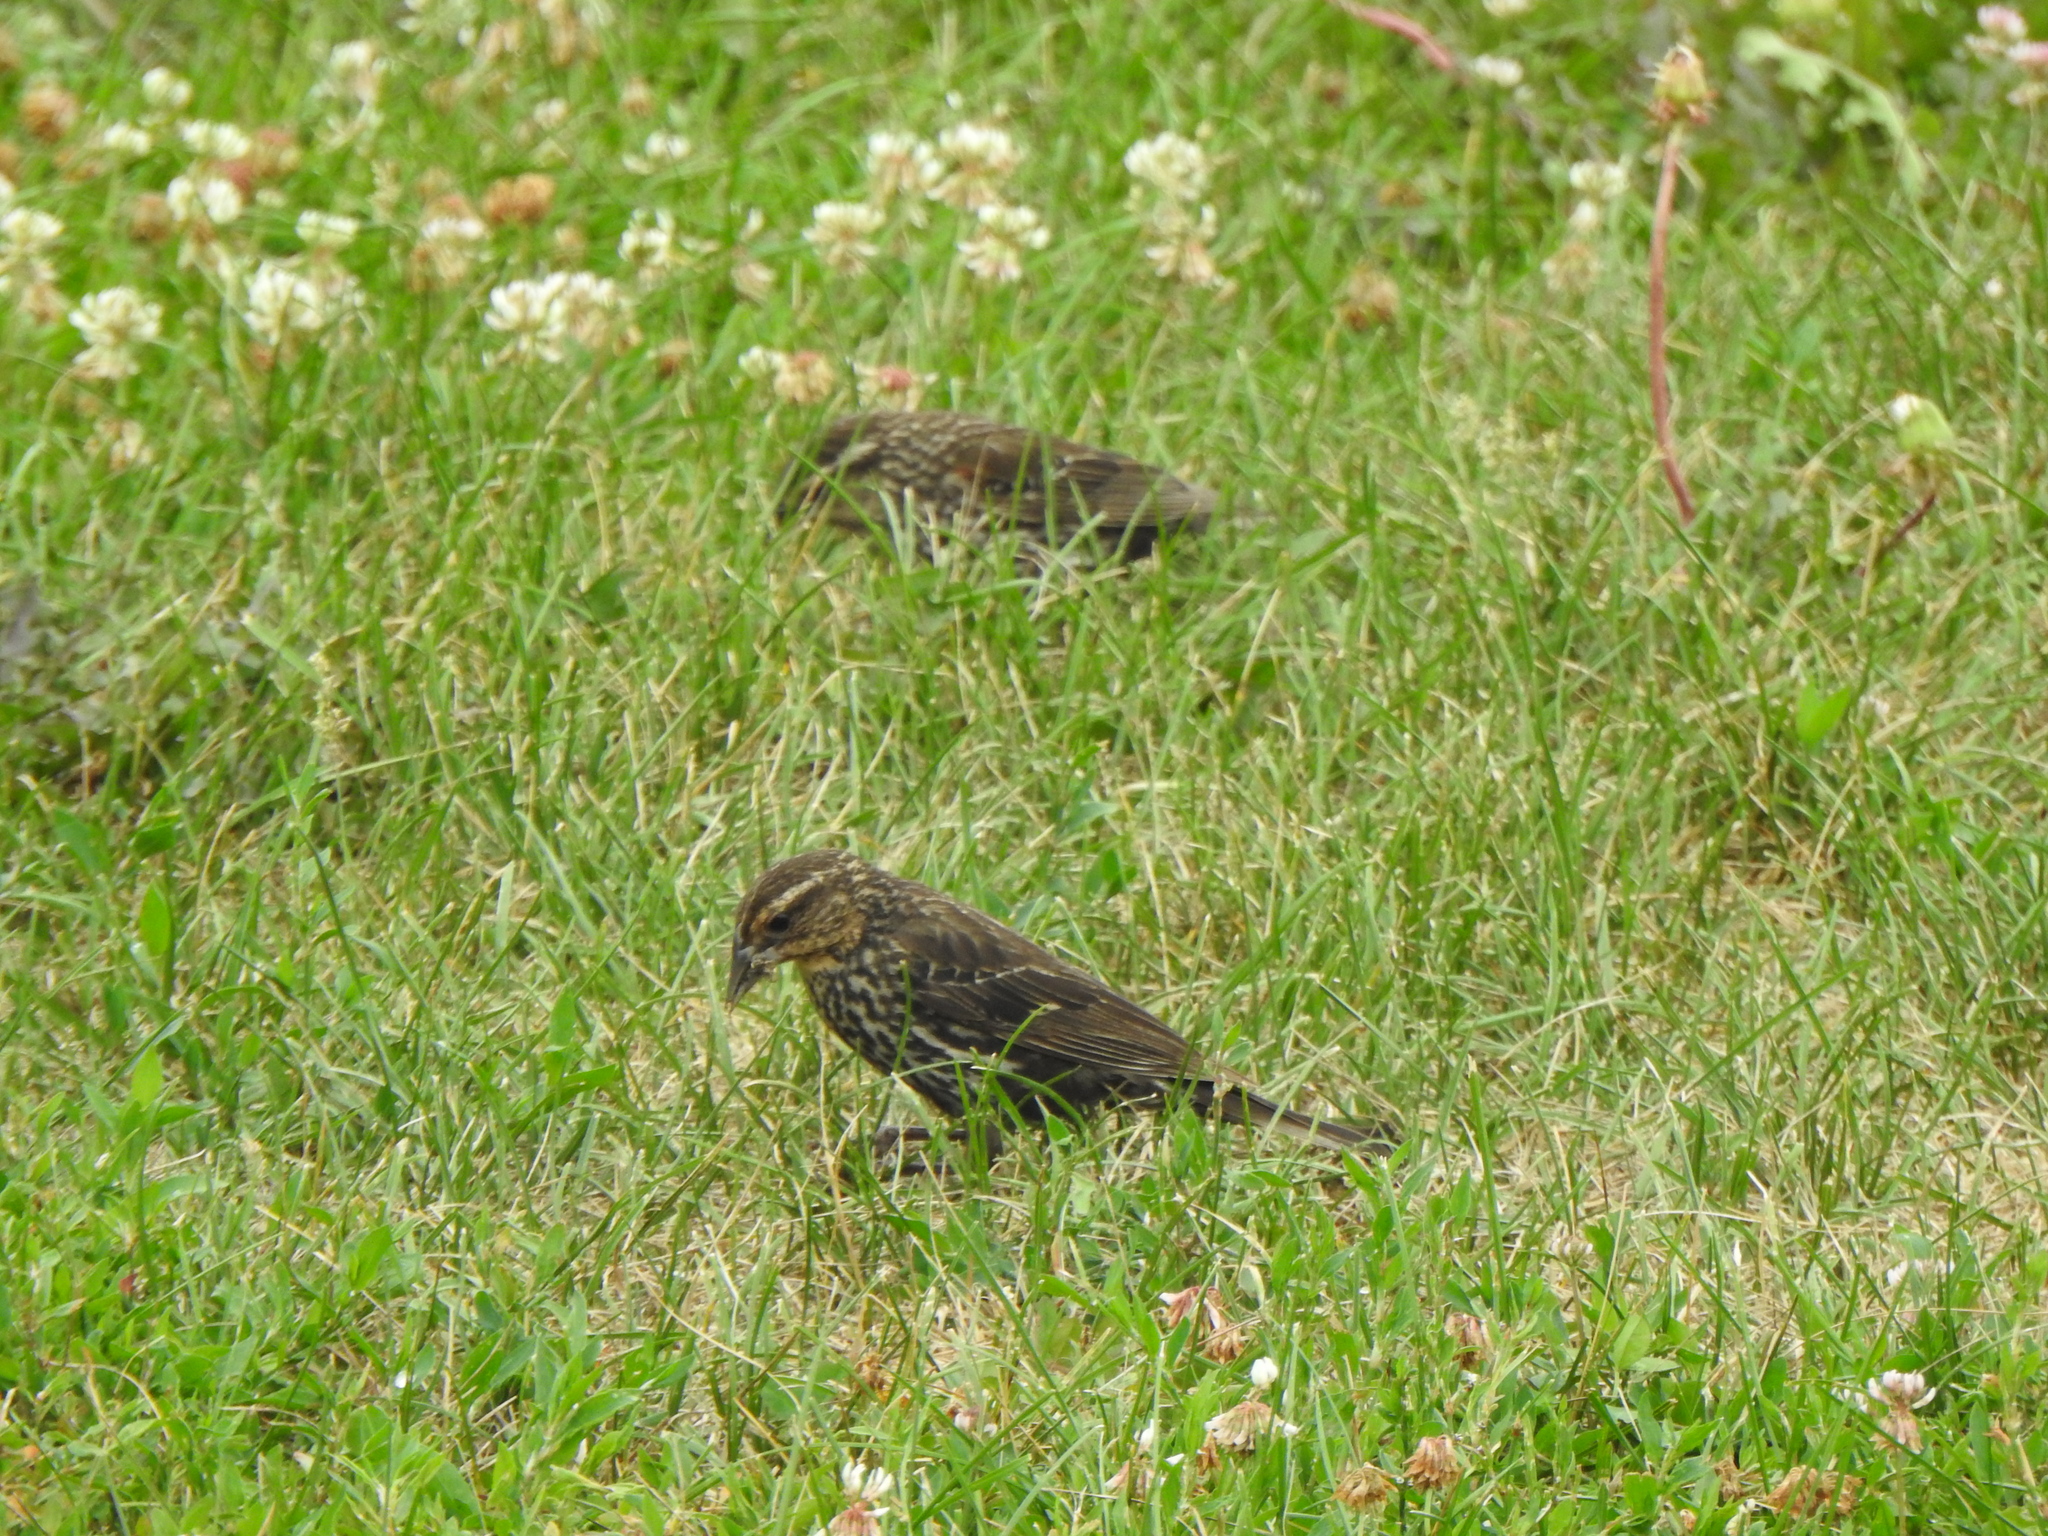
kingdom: Animalia
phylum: Chordata
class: Aves
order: Passeriformes
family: Icteridae
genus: Agelaius
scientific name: Agelaius phoeniceus
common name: Red-winged blackbird
